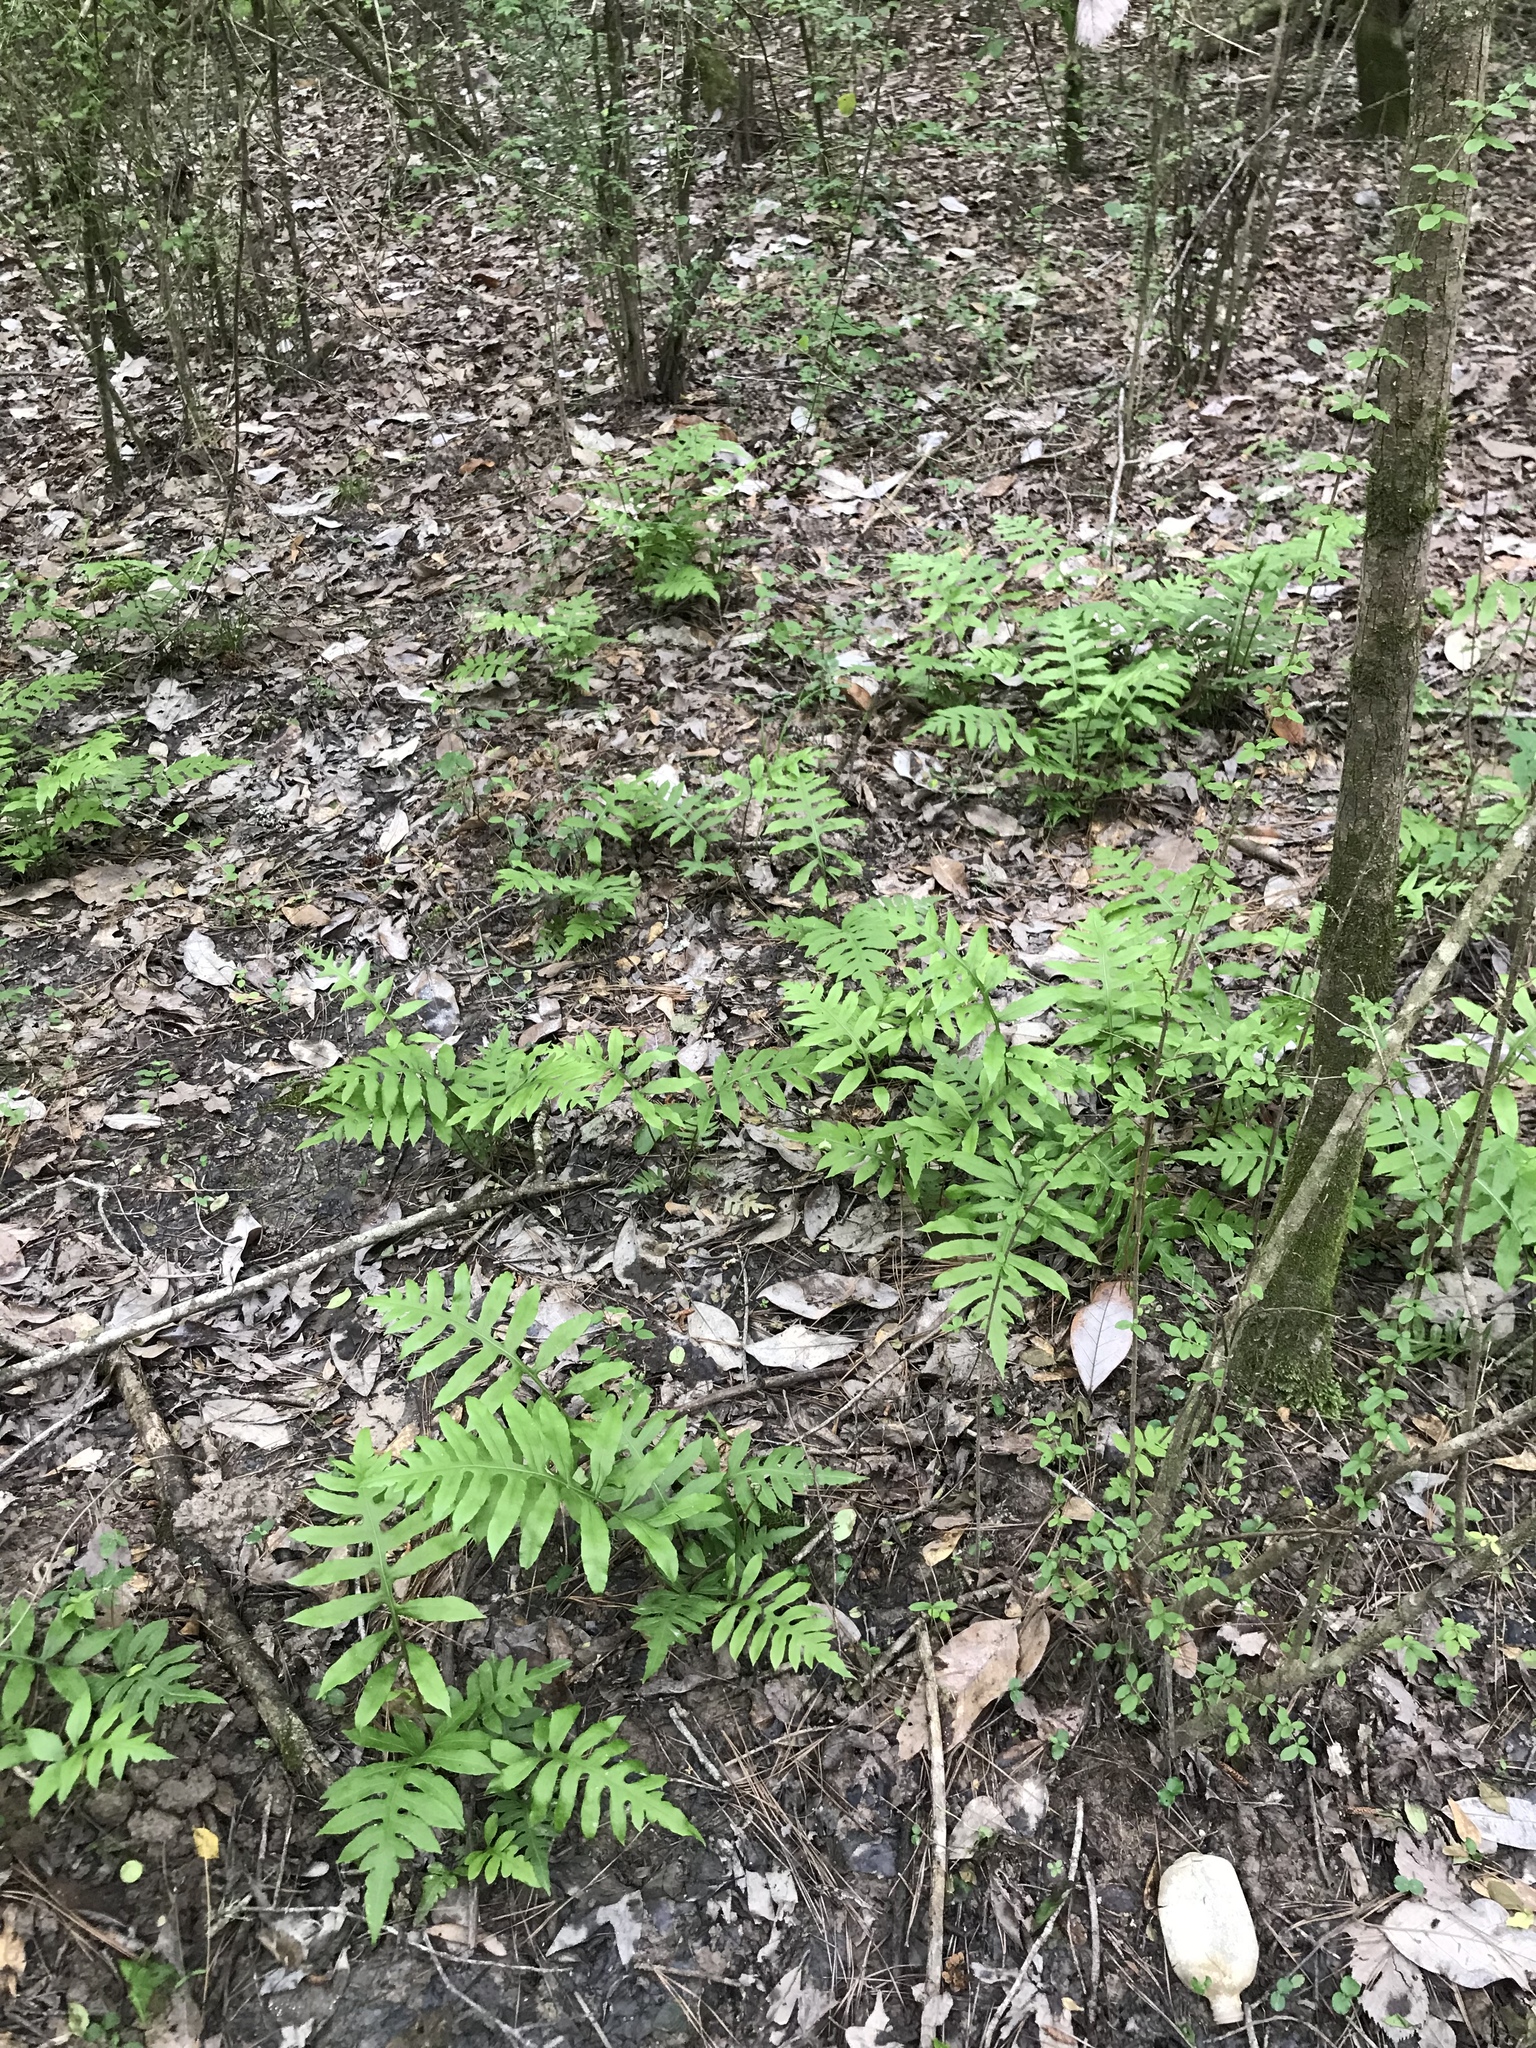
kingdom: Plantae
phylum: Tracheophyta
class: Polypodiopsida
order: Polypodiales
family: Blechnaceae
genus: Lorinseria
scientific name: Lorinseria areolata
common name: Dwarf chain fern
